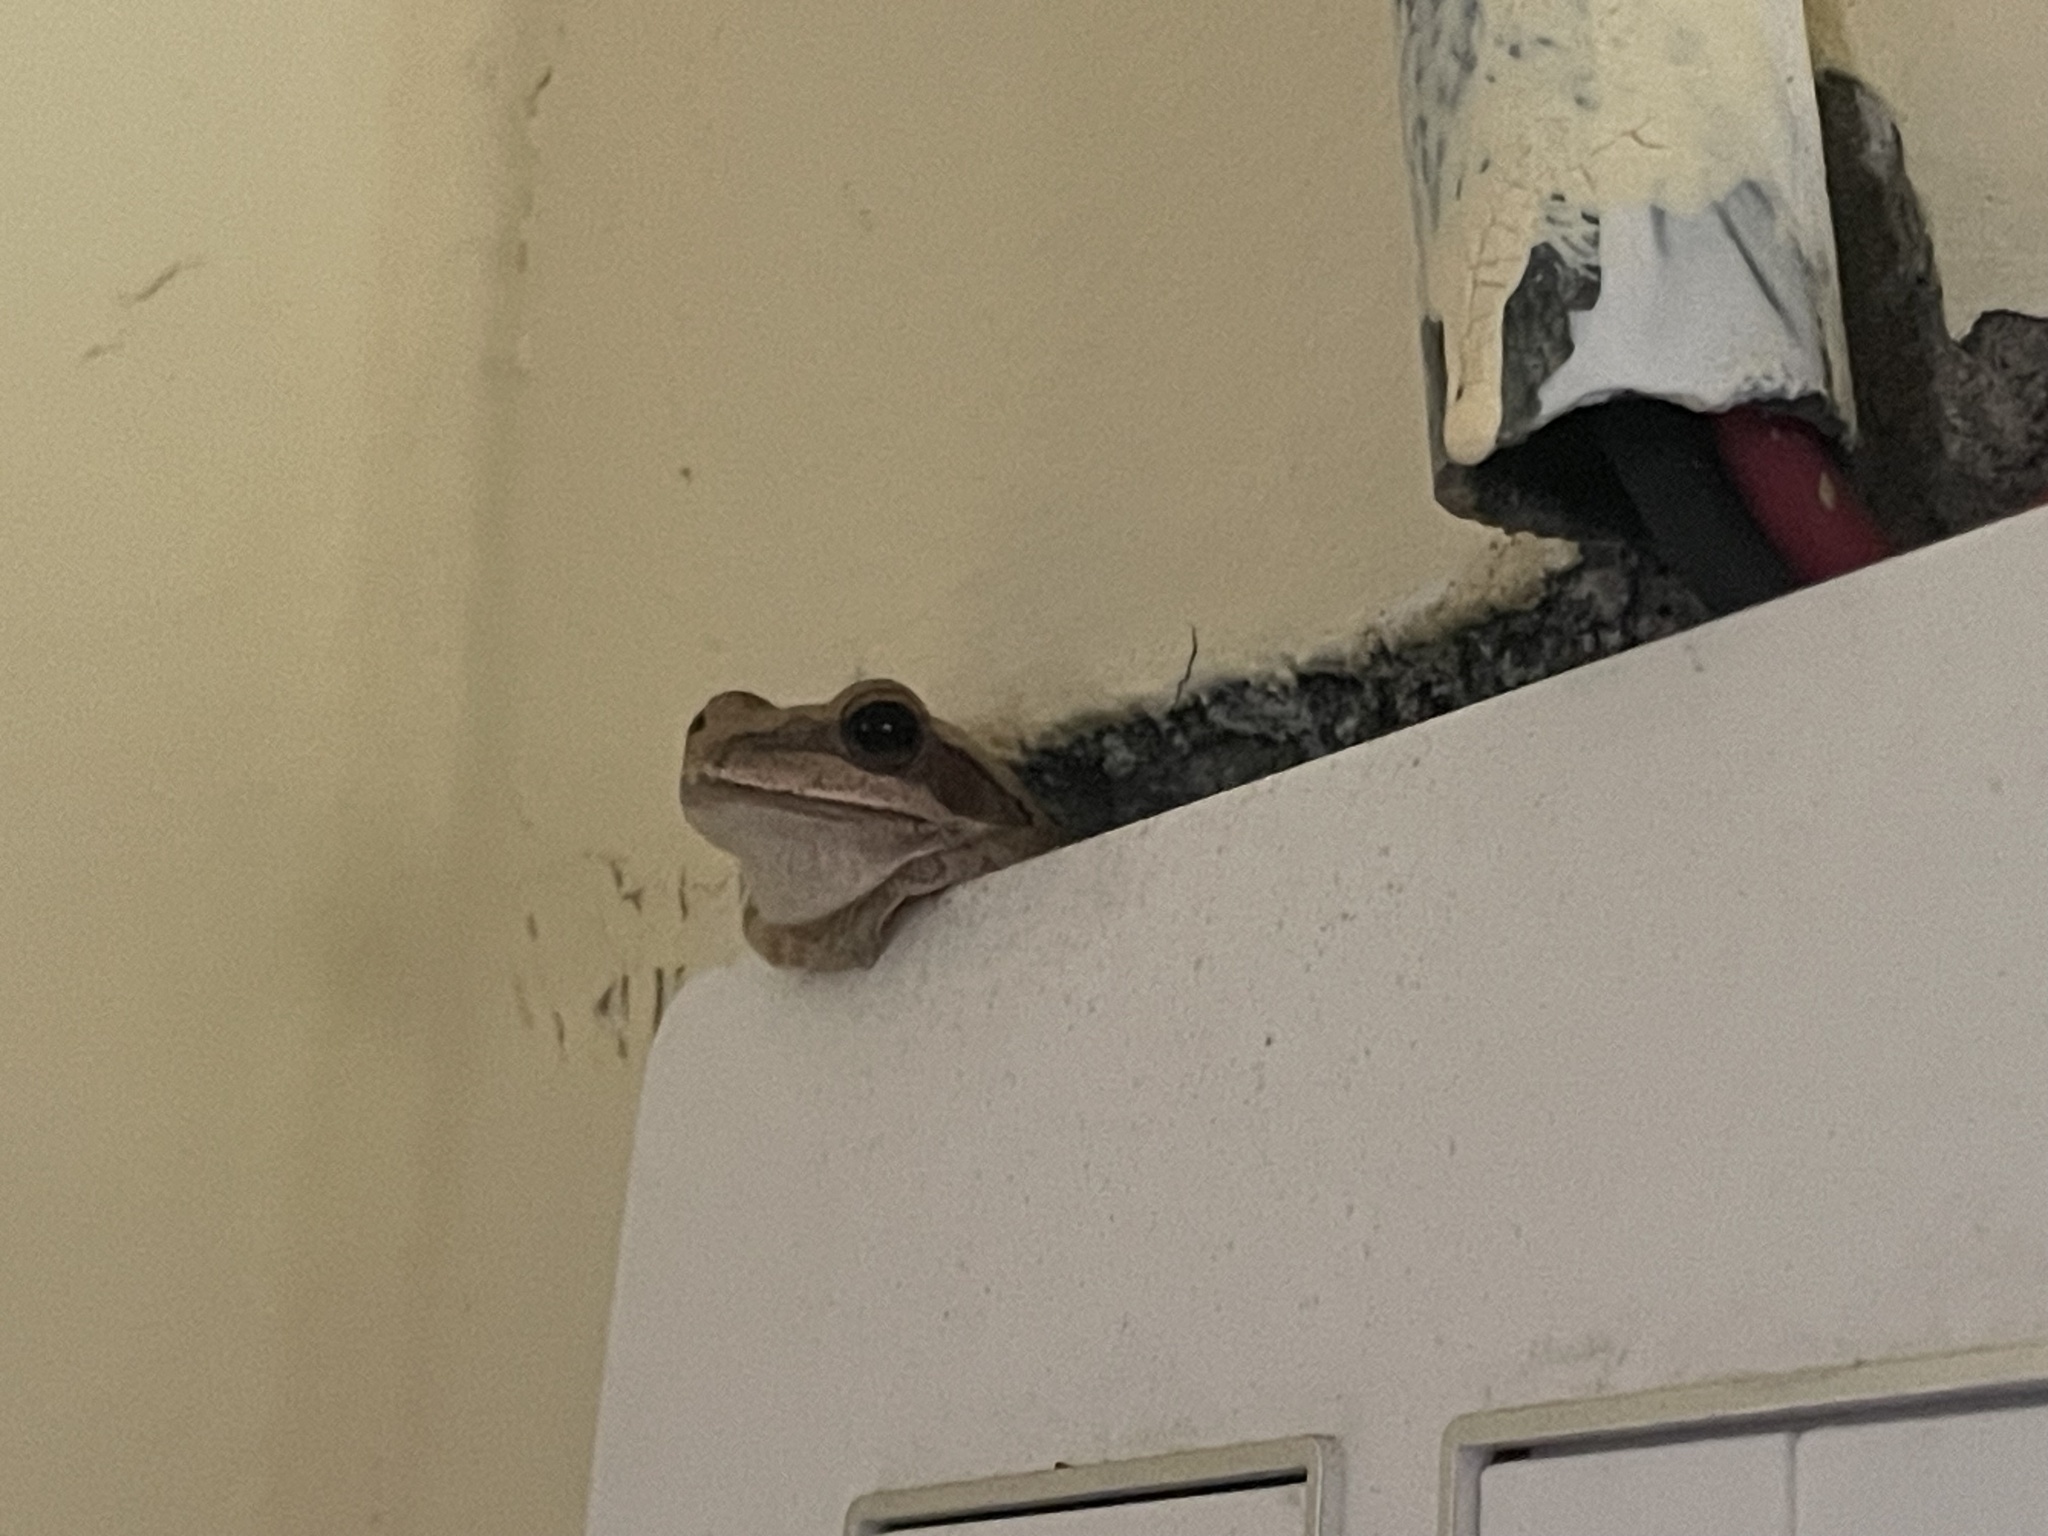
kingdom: Animalia
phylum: Chordata
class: Amphibia
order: Anura
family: Rhacophoridae
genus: Polypedates
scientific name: Polypedates maculatus
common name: Himalayan tree frog
